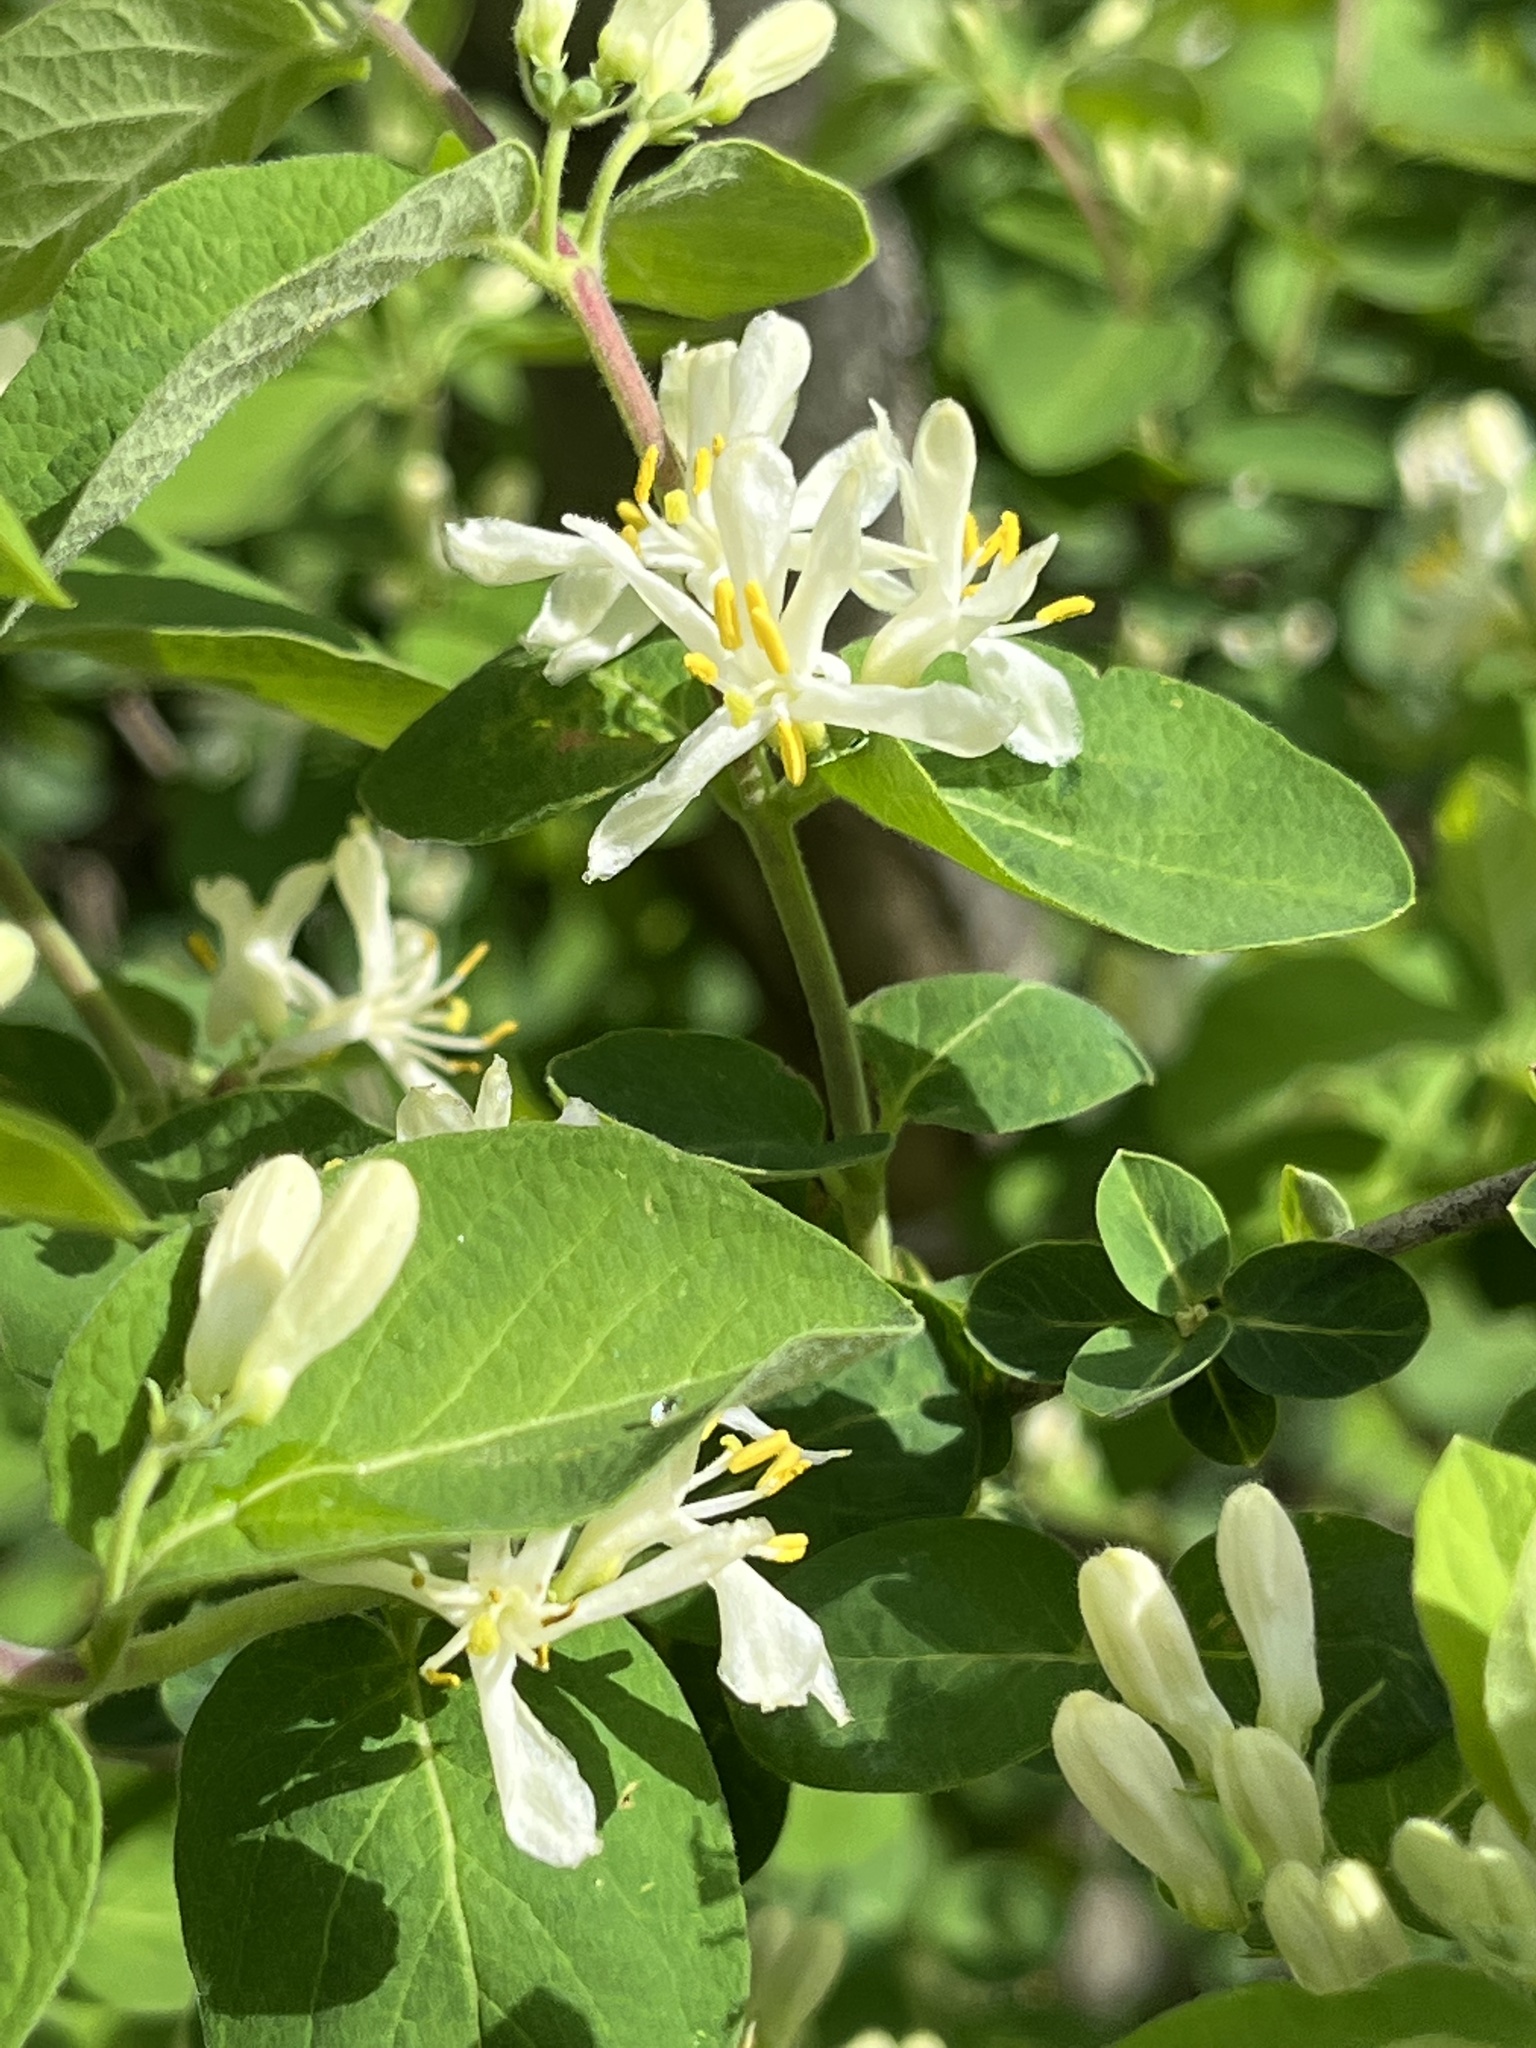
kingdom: Plantae
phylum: Tracheophyta
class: Magnoliopsida
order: Dipsacales
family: Caprifoliaceae
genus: Lonicera
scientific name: Lonicera morrowii
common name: Morrow's honeysuckle
